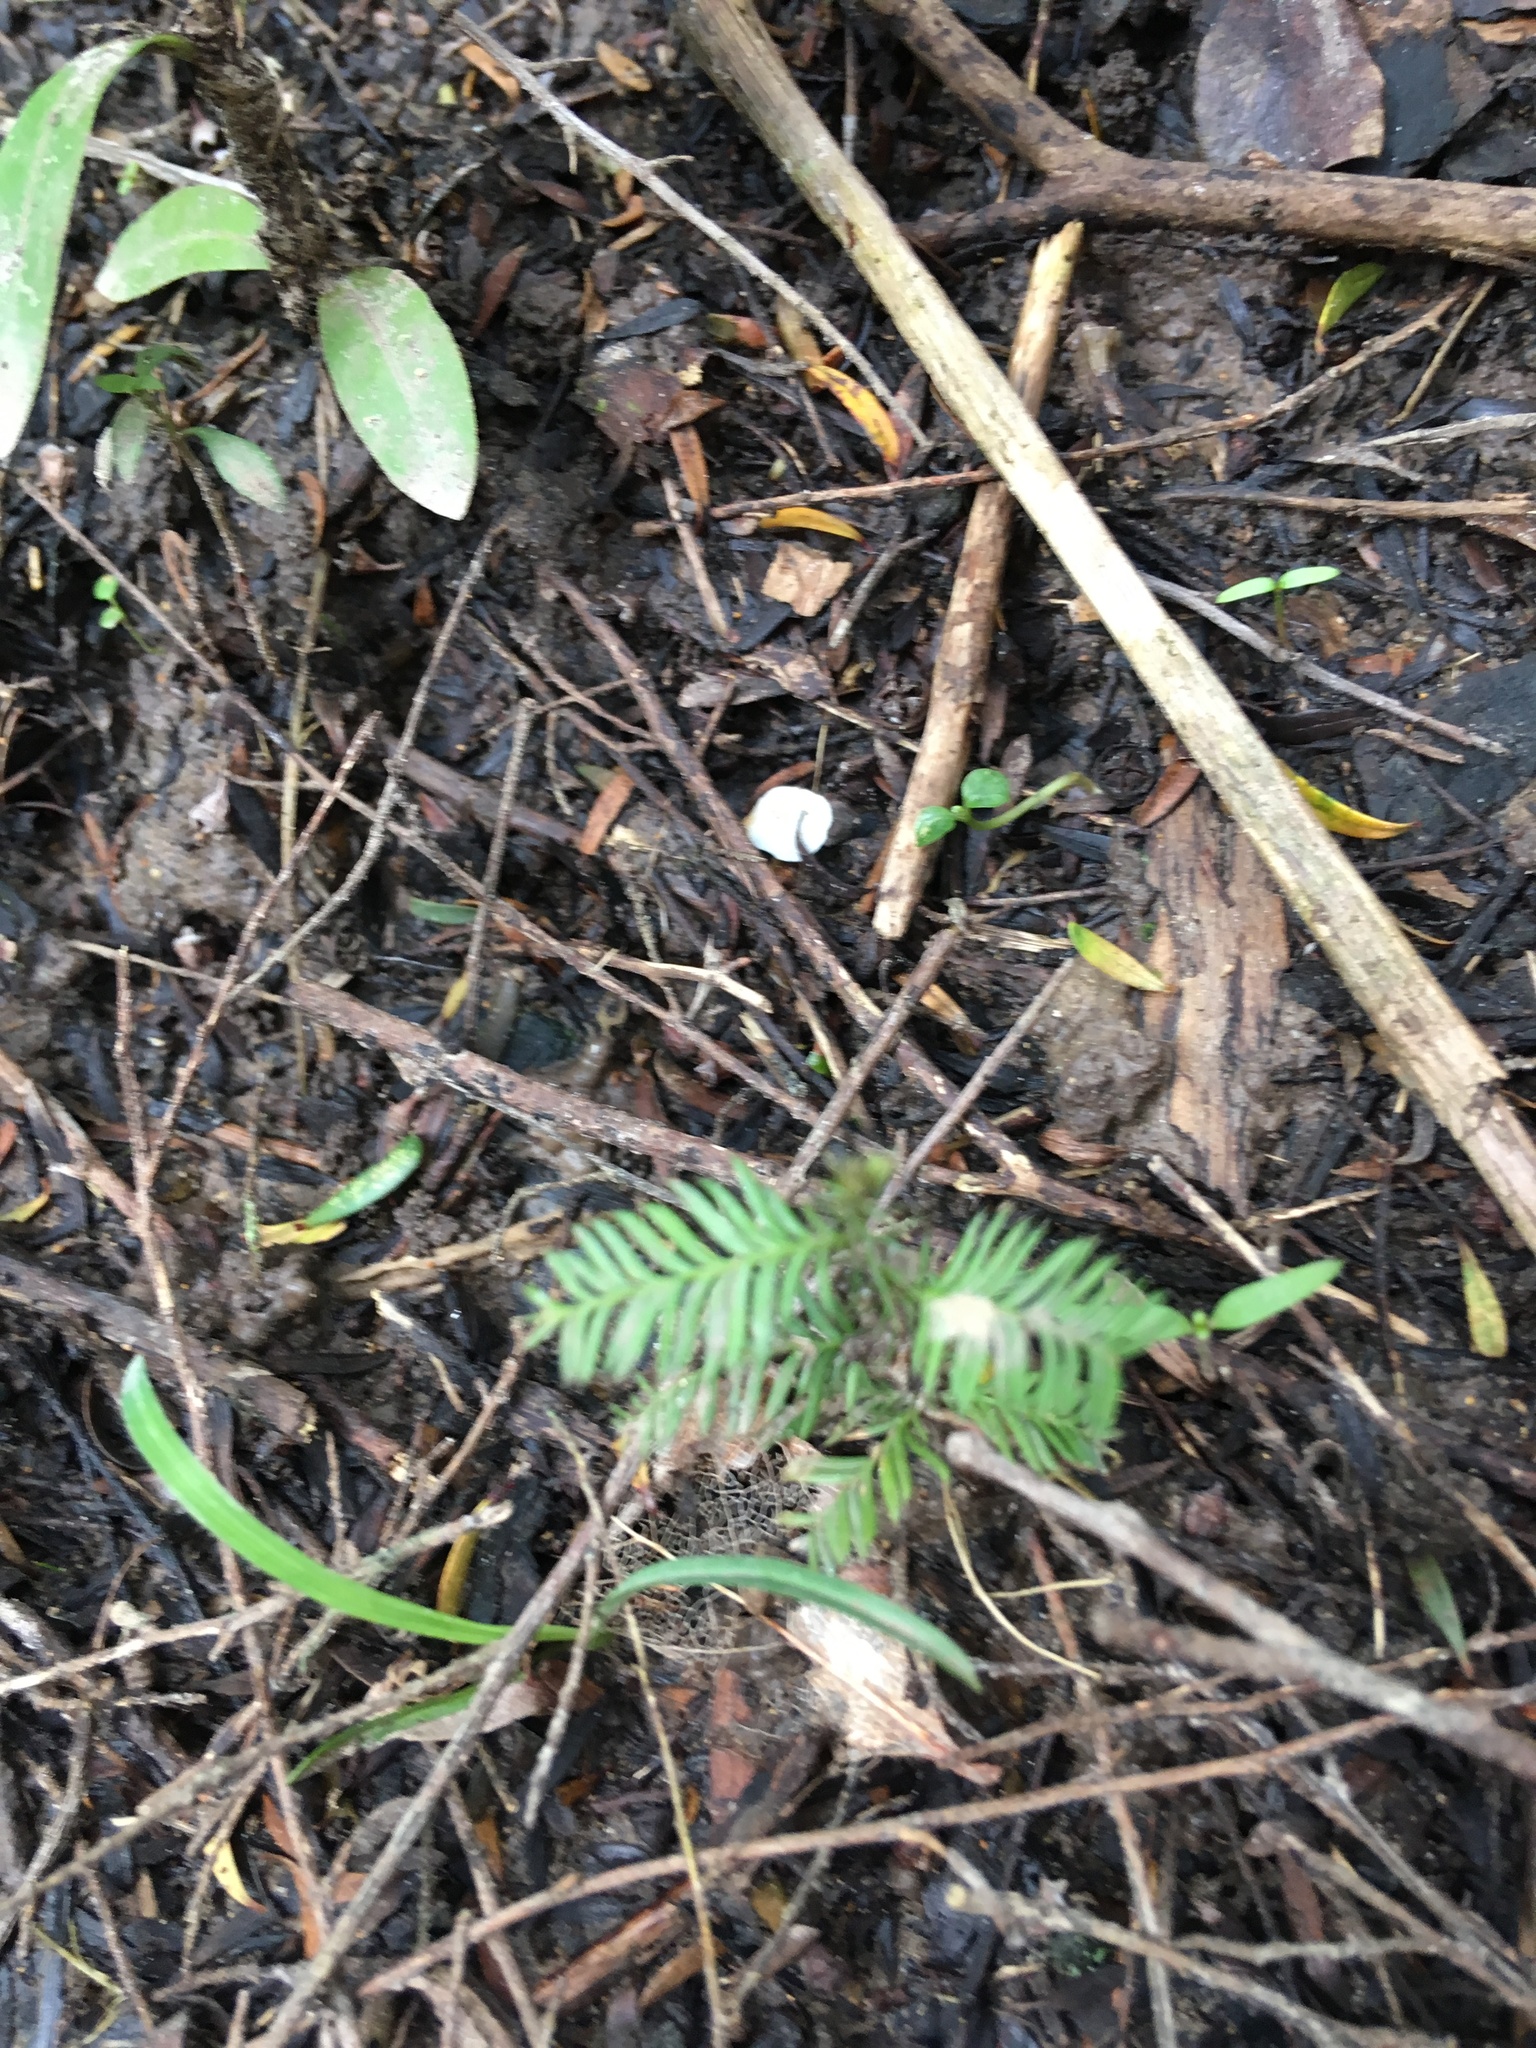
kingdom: Plantae
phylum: Tracheophyta
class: Pinopsida
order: Pinales
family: Podocarpaceae
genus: Dacrycarpus
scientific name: Dacrycarpus dacrydioides
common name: White pine
